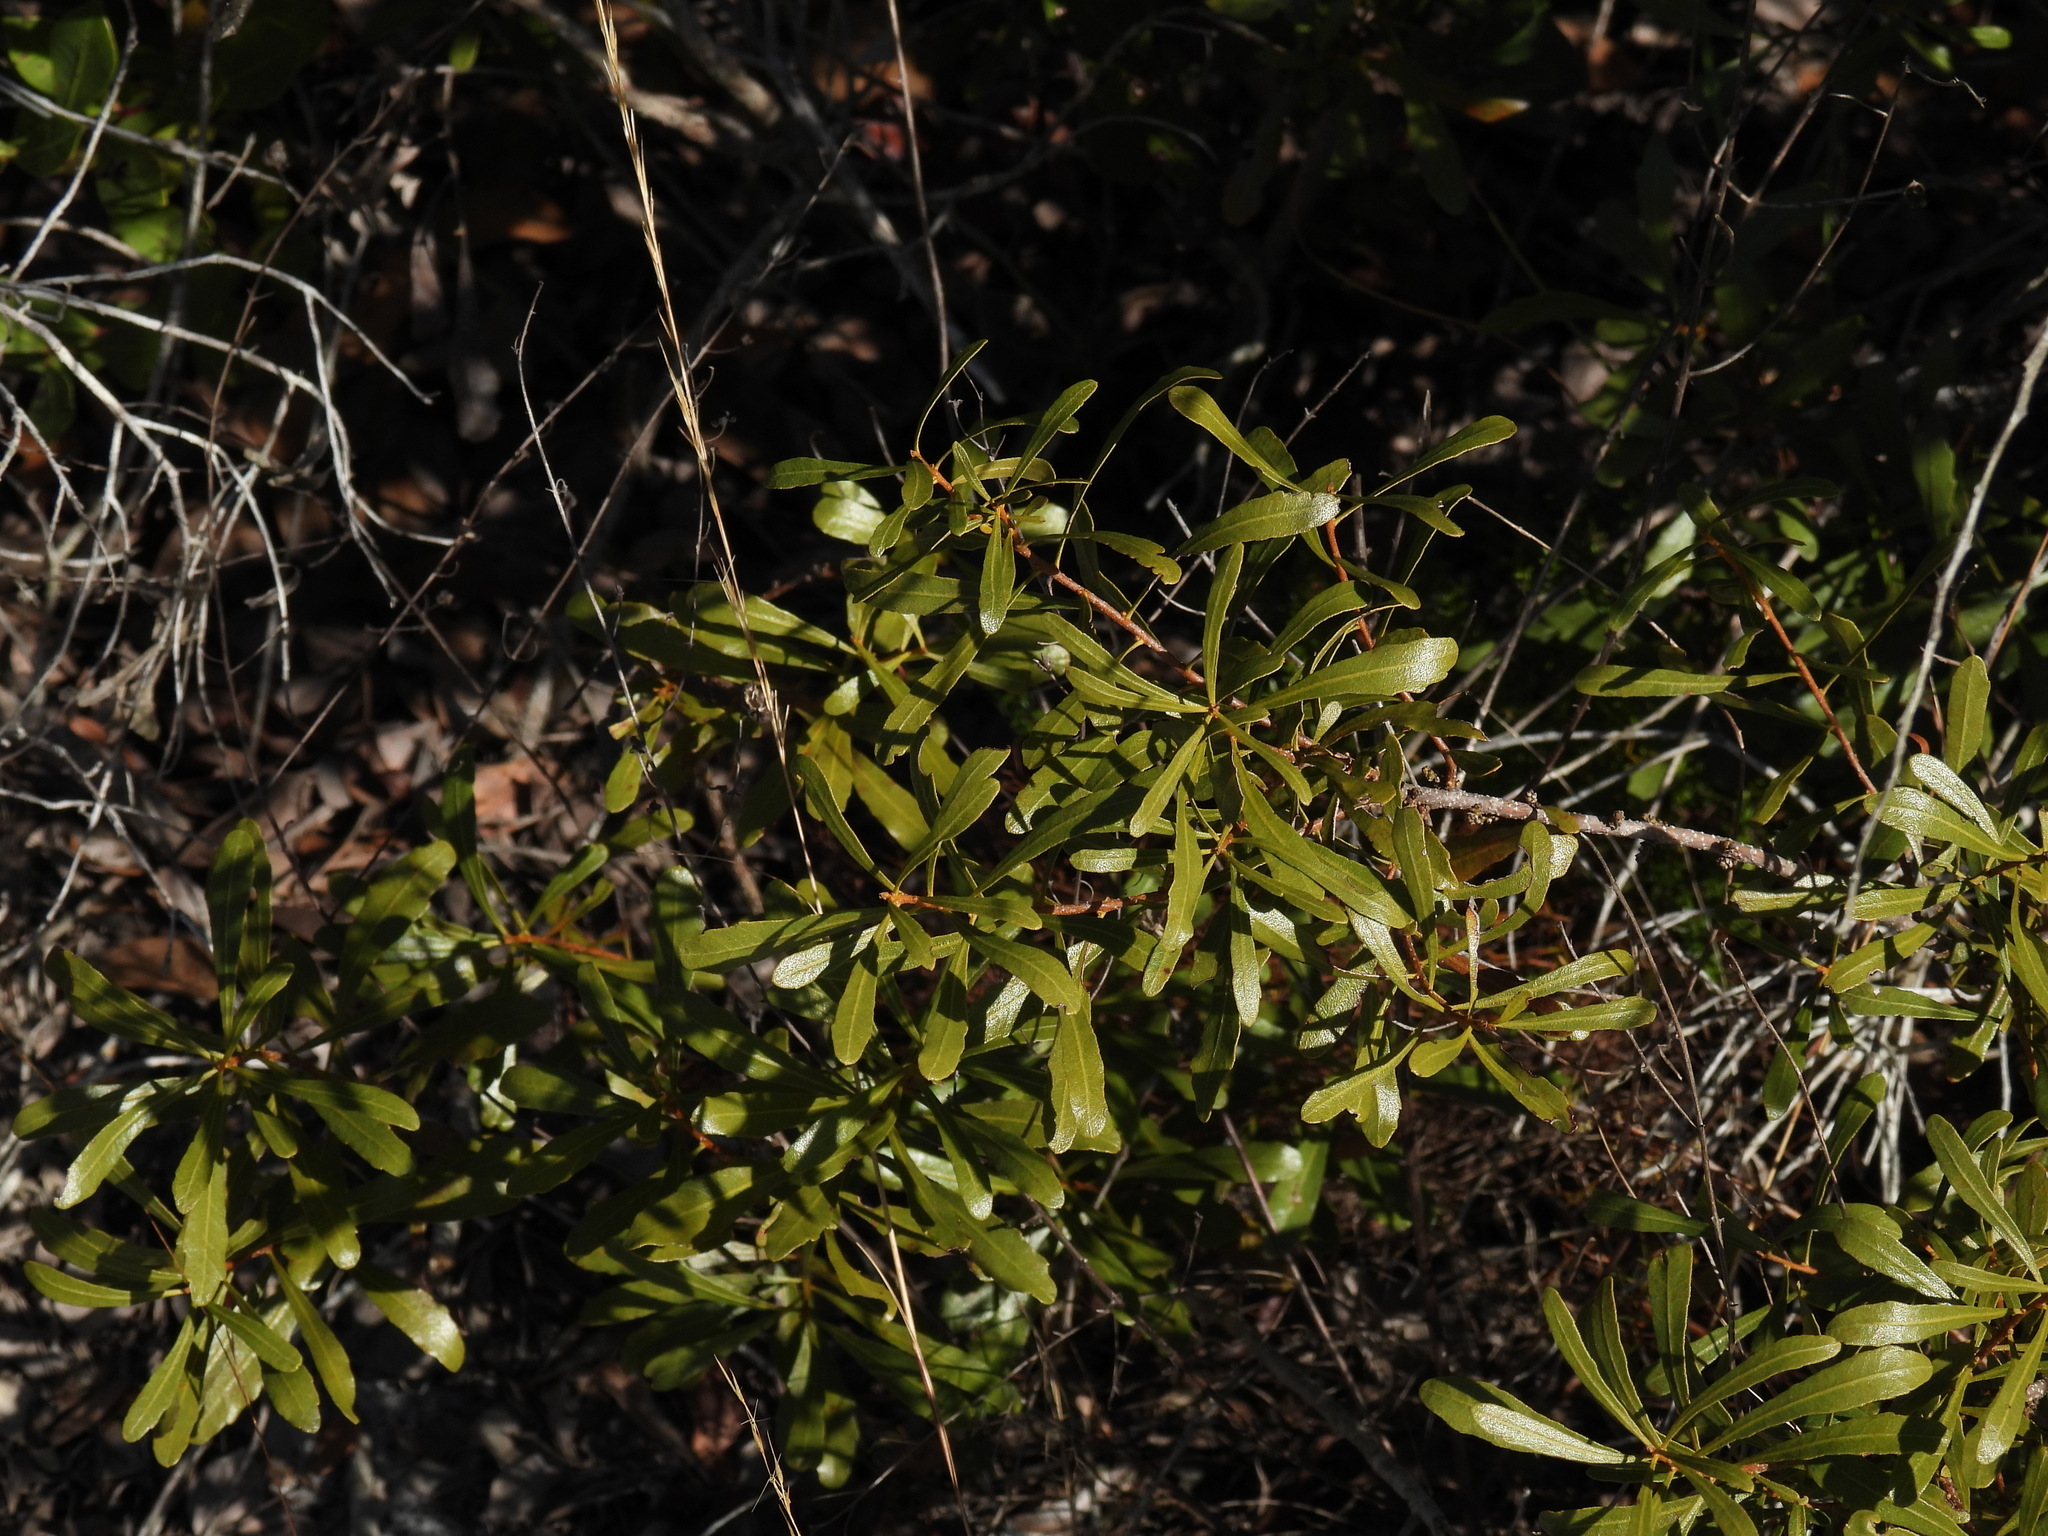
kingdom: Plantae
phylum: Tracheophyta
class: Magnoliopsida
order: Fagales
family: Myricaceae
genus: Morella
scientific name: Morella cerifera
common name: Wax myrtle
